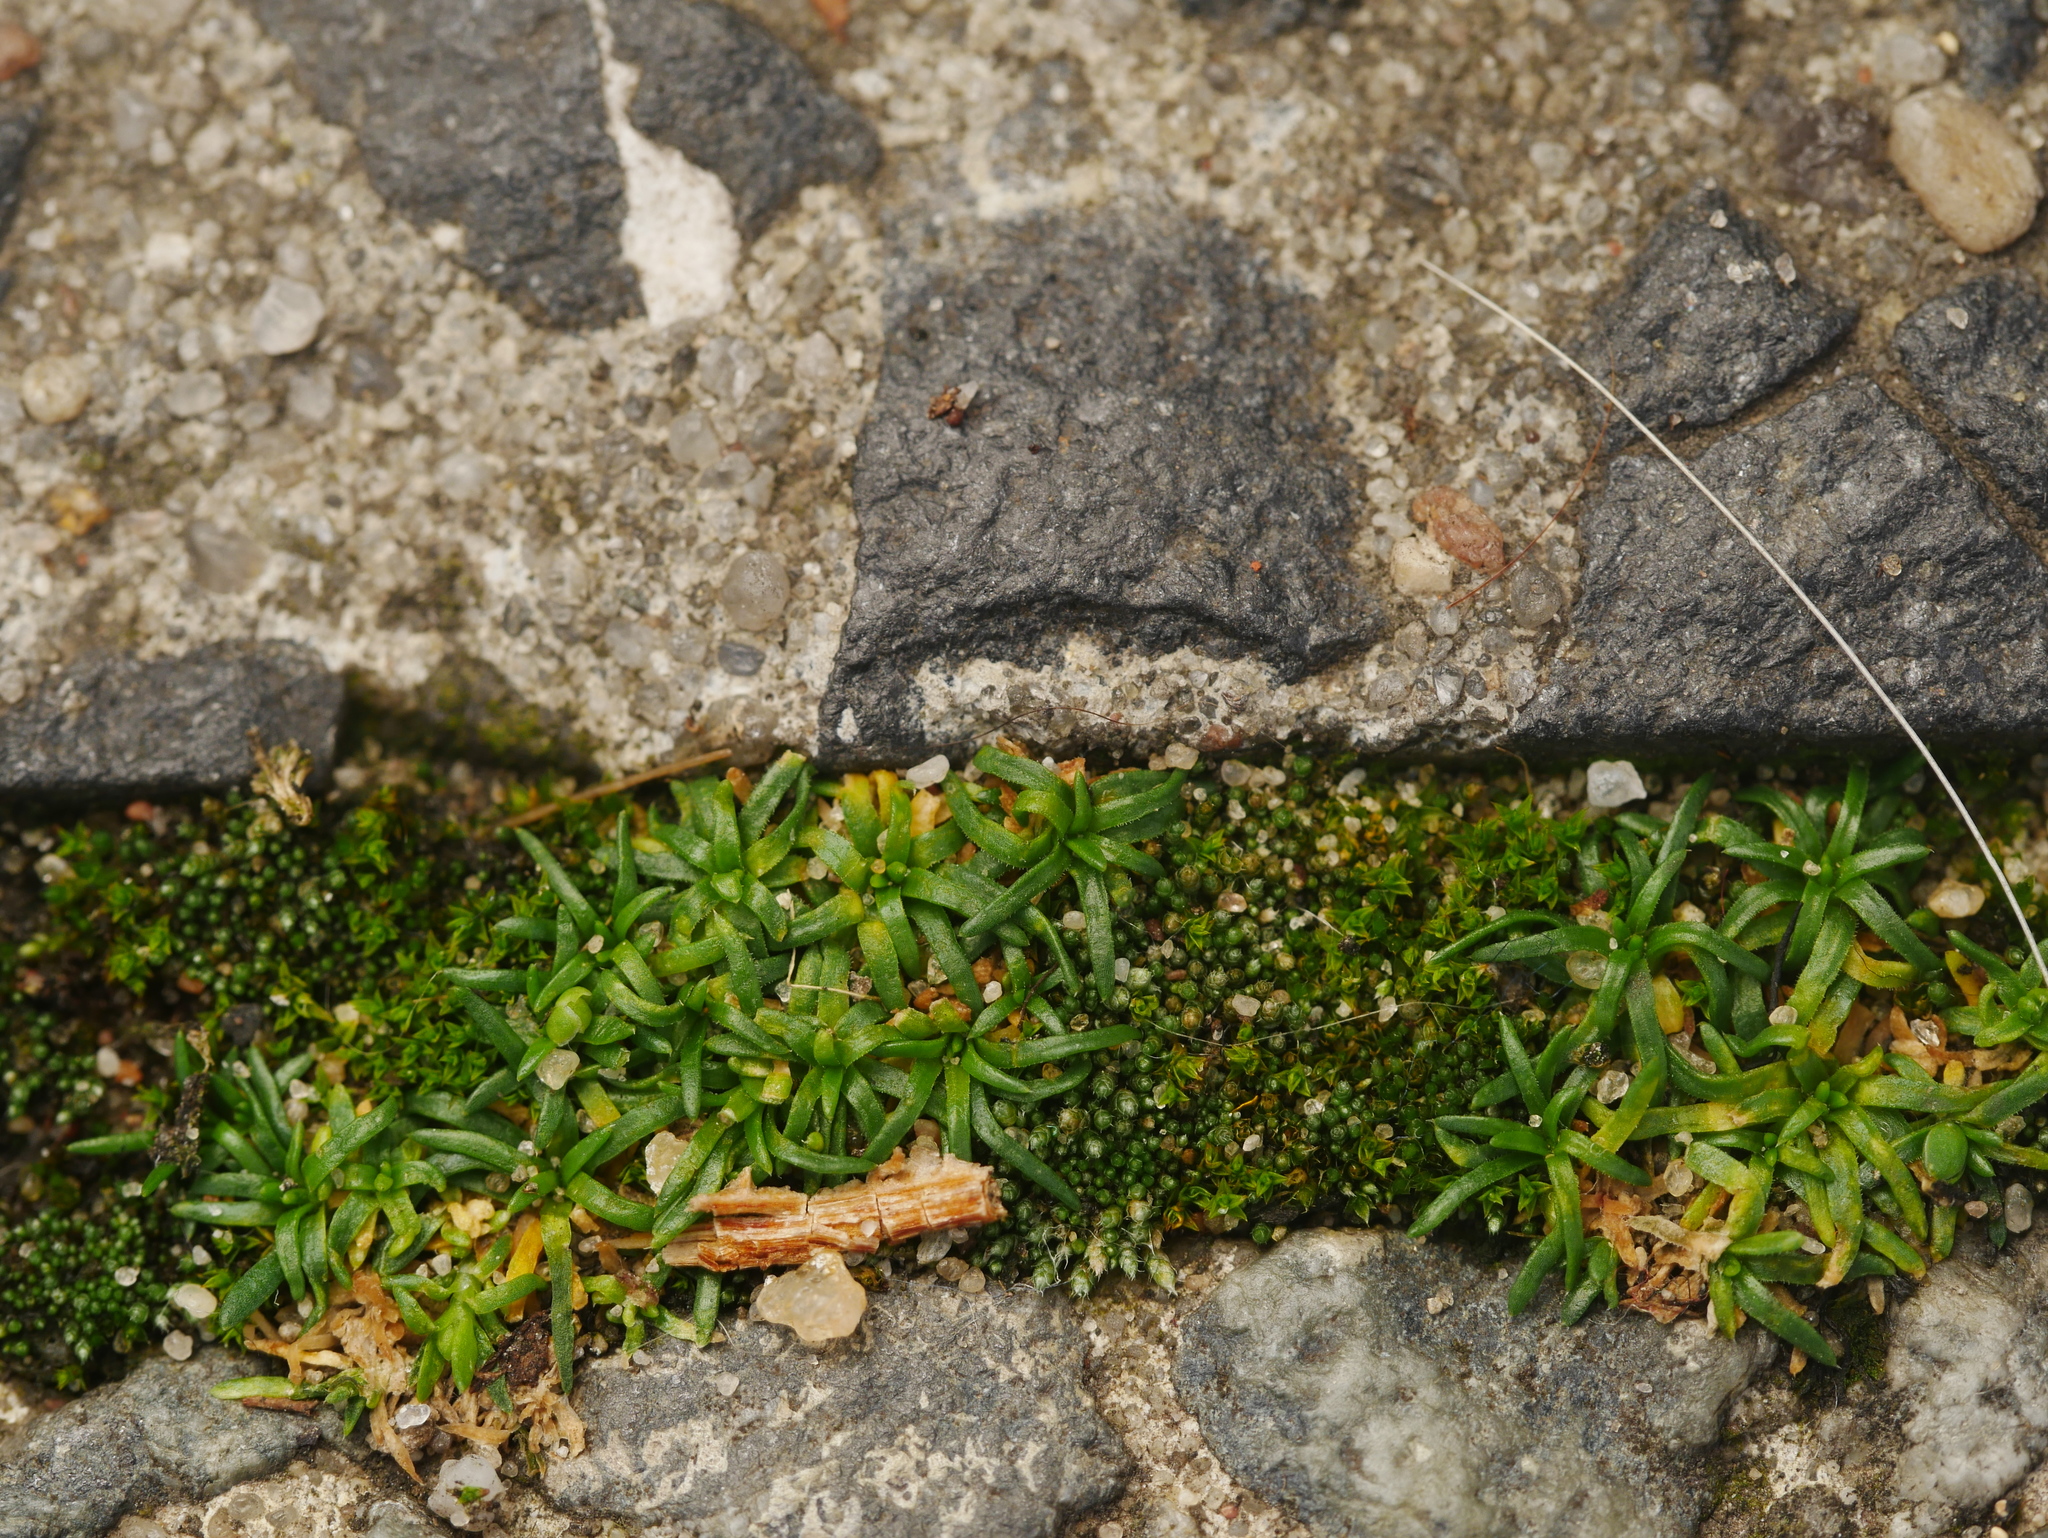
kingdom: Plantae
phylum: Tracheophyta
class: Magnoliopsida
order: Caryophyllales
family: Caryophyllaceae
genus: Sagina
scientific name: Sagina procumbens
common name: Procumbent pearlwort
